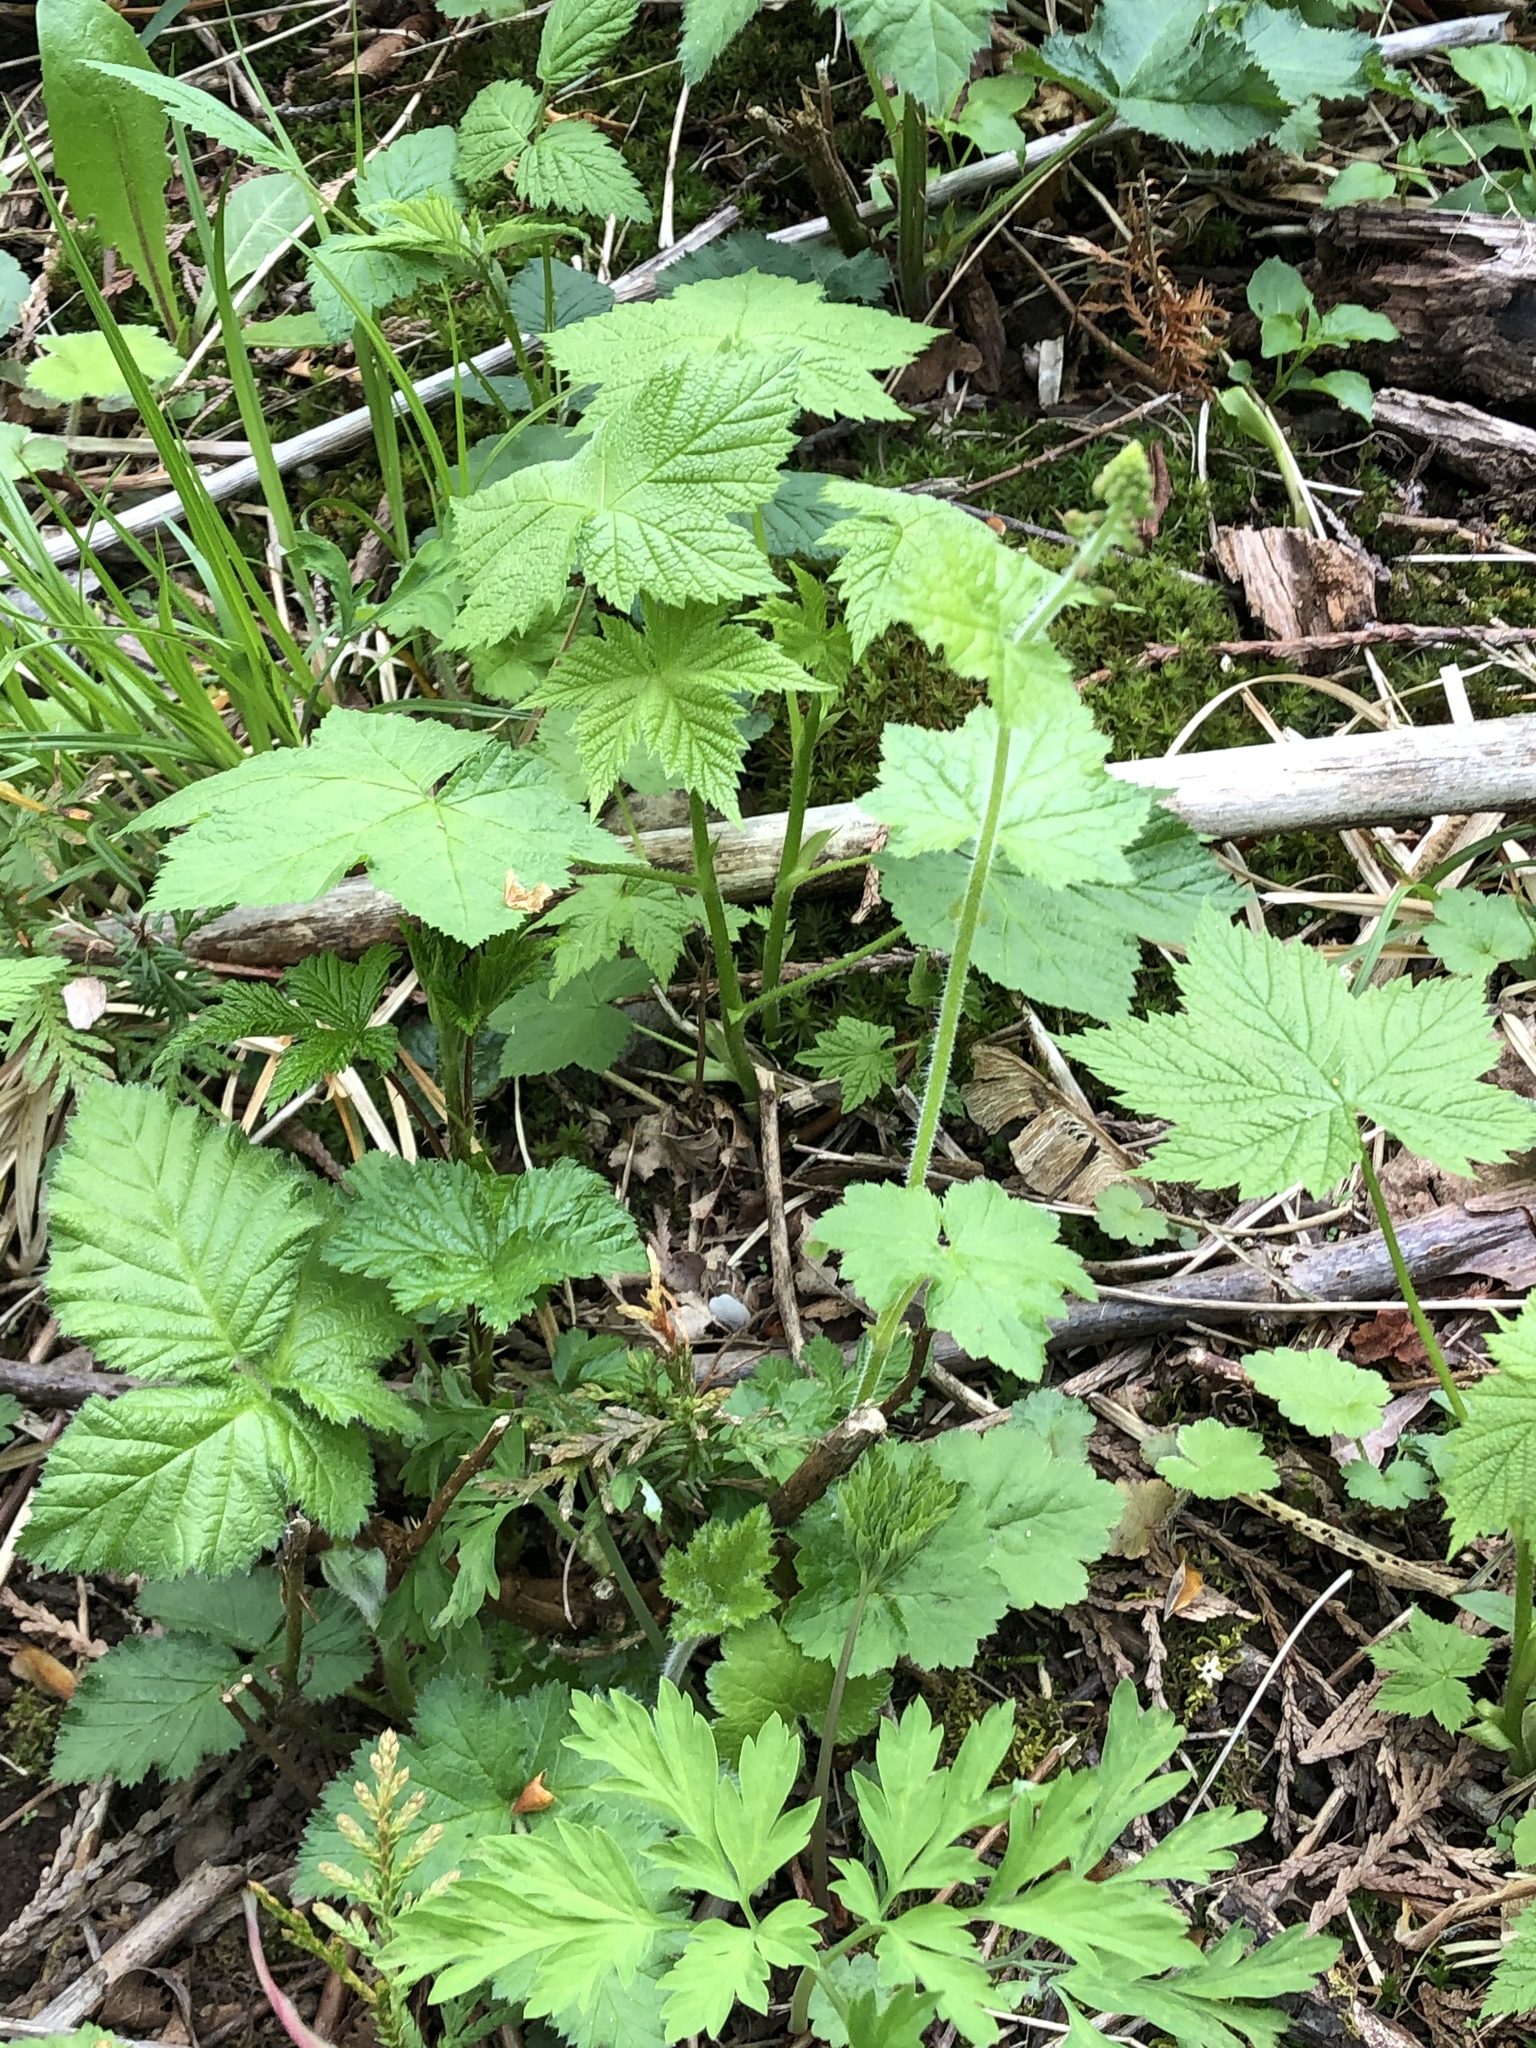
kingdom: Plantae
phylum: Tracheophyta
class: Magnoliopsida
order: Saxifragales
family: Saxifragaceae
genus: Tellima
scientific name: Tellima grandiflora
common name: Fringecups
